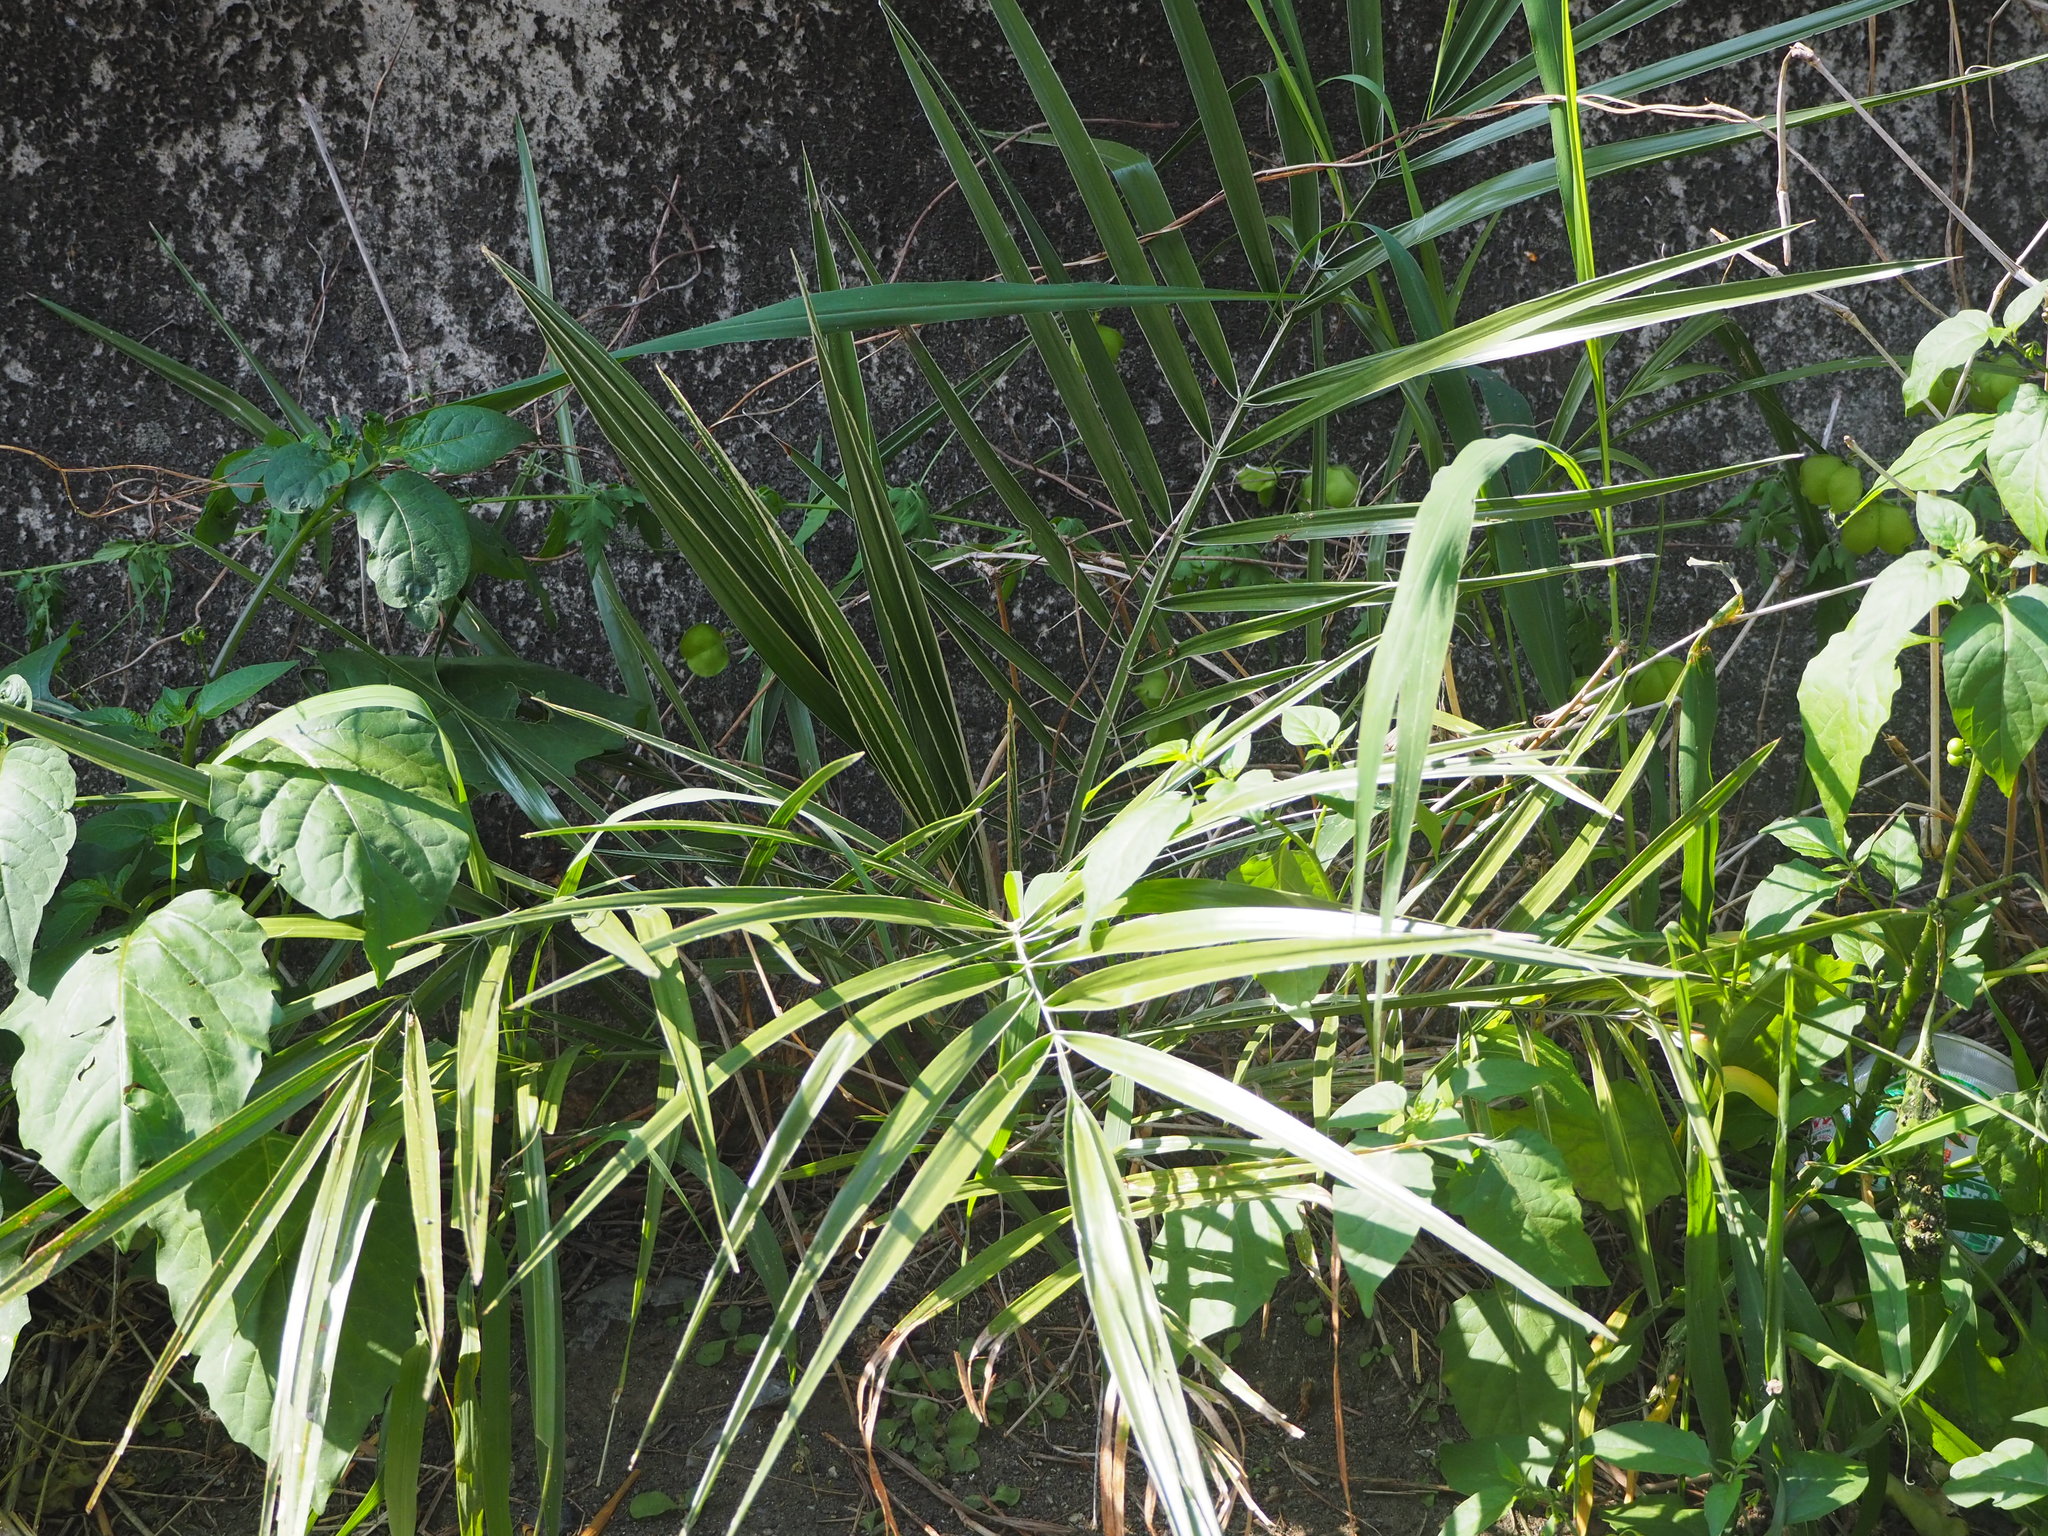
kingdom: Plantae
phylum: Tracheophyta
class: Liliopsida
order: Arecales
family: Arecaceae
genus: Phoenix
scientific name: Phoenix loureiroi
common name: Loureiro's palm
